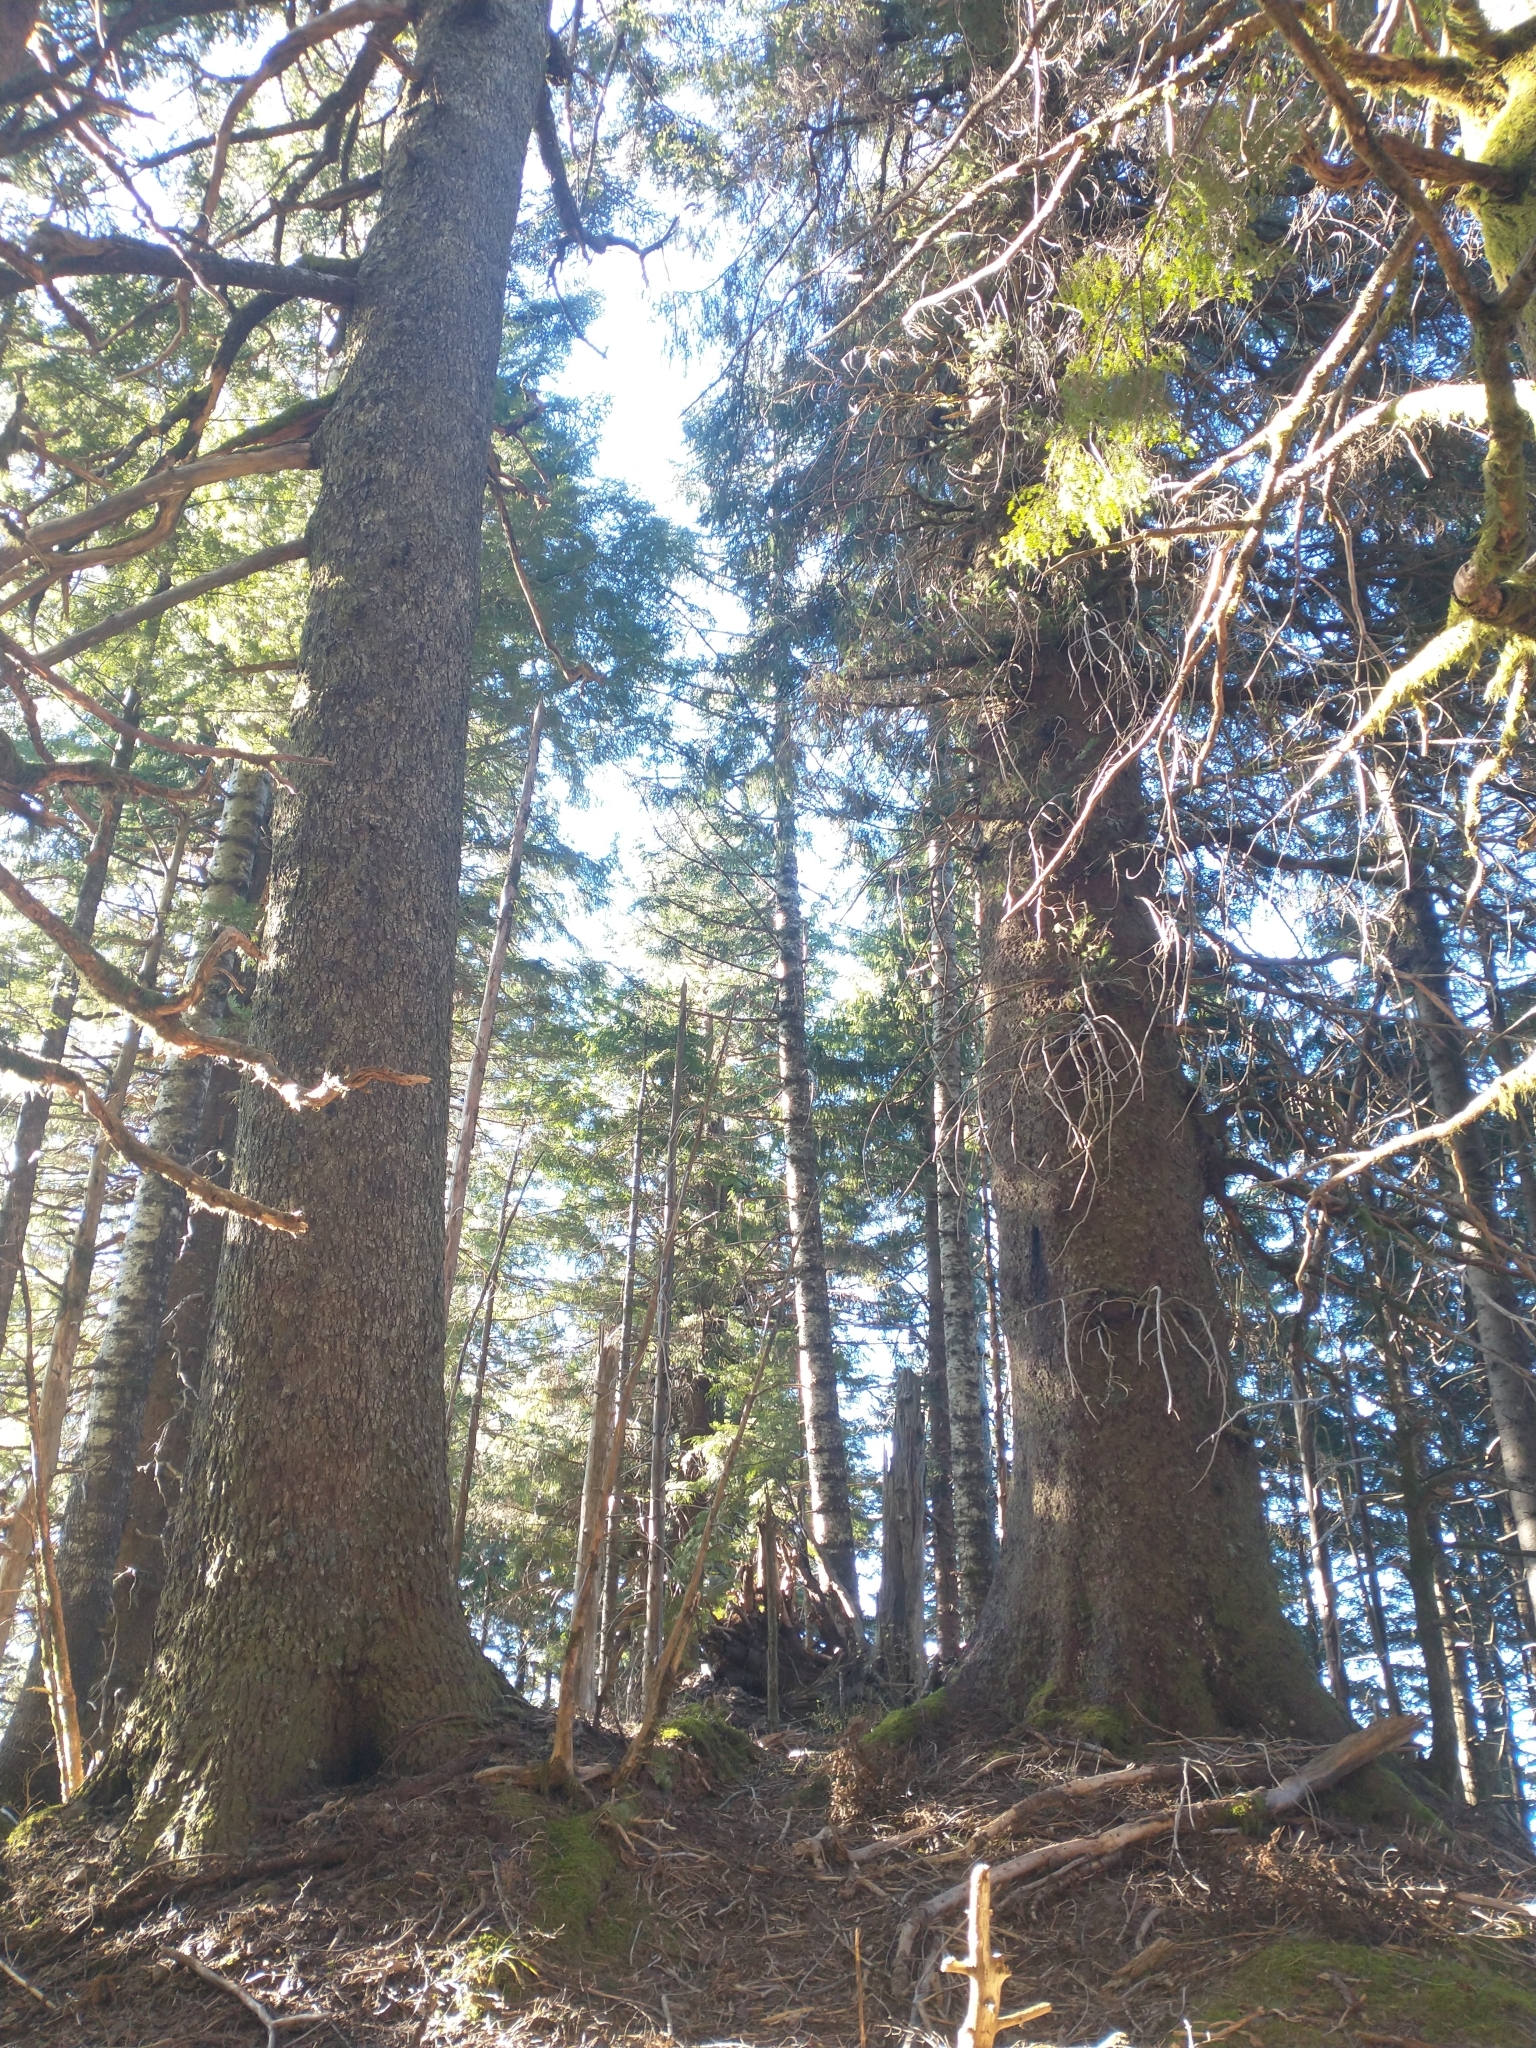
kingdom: Plantae
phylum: Tracheophyta
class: Pinopsida
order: Pinales
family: Pinaceae
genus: Picea
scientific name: Picea sitchensis
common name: Sitka spruce
